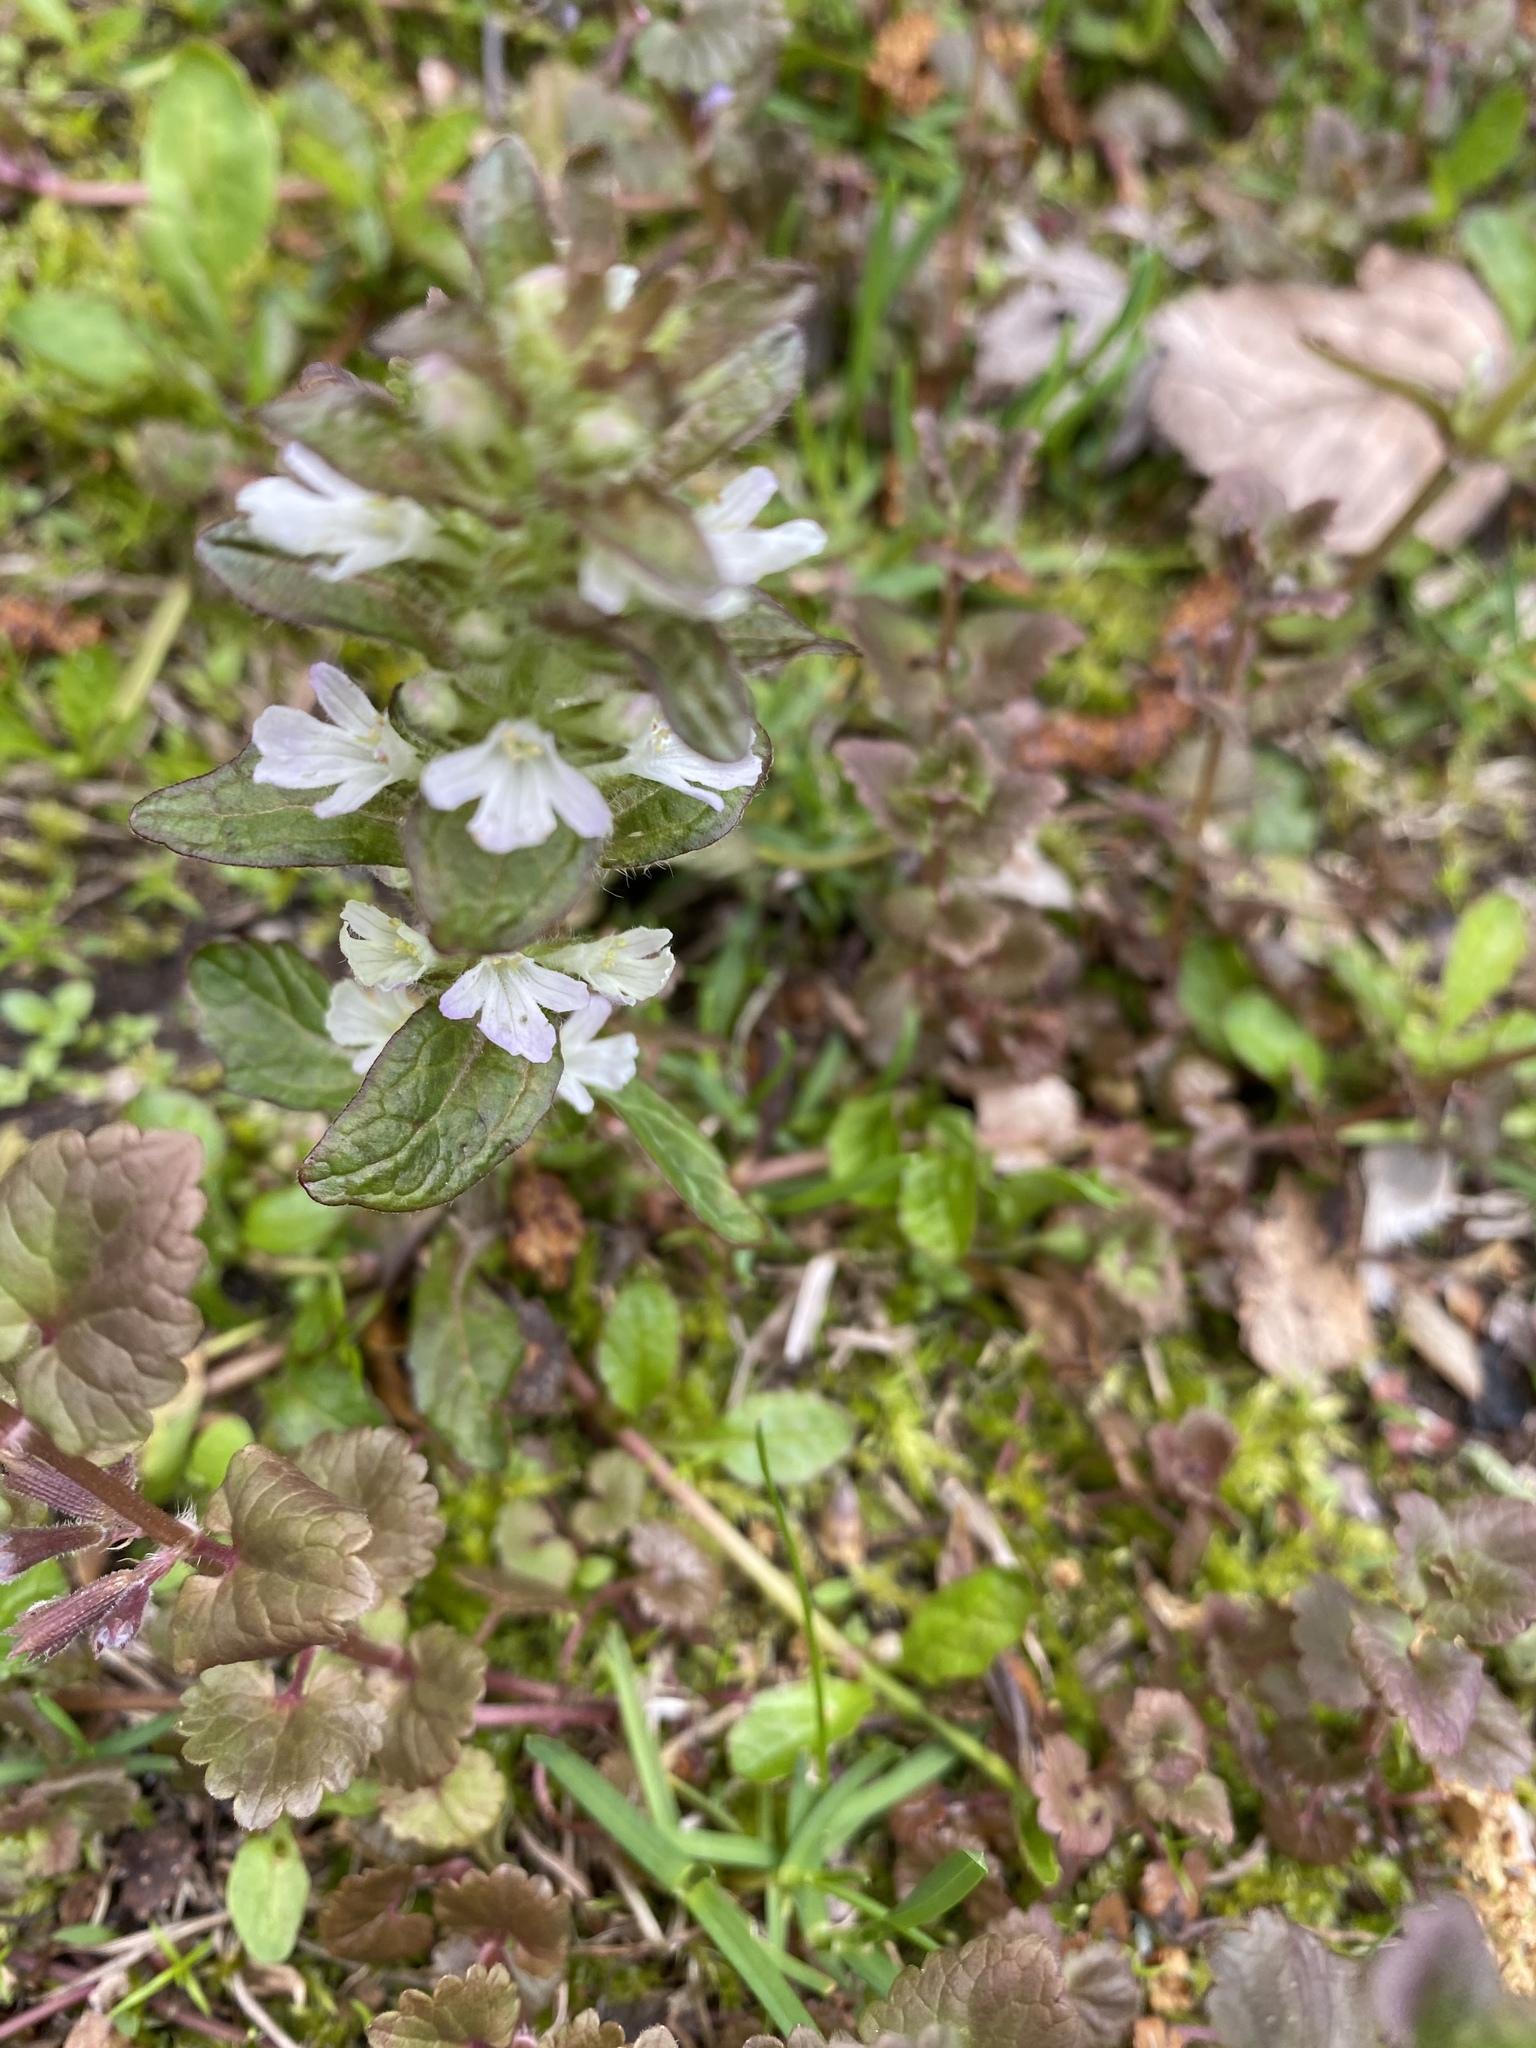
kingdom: Plantae
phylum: Tracheophyta
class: Magnoliopsida
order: Lamiales
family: Lamiaceae
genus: Ajuga
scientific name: Ajuga reptans
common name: Bugle
